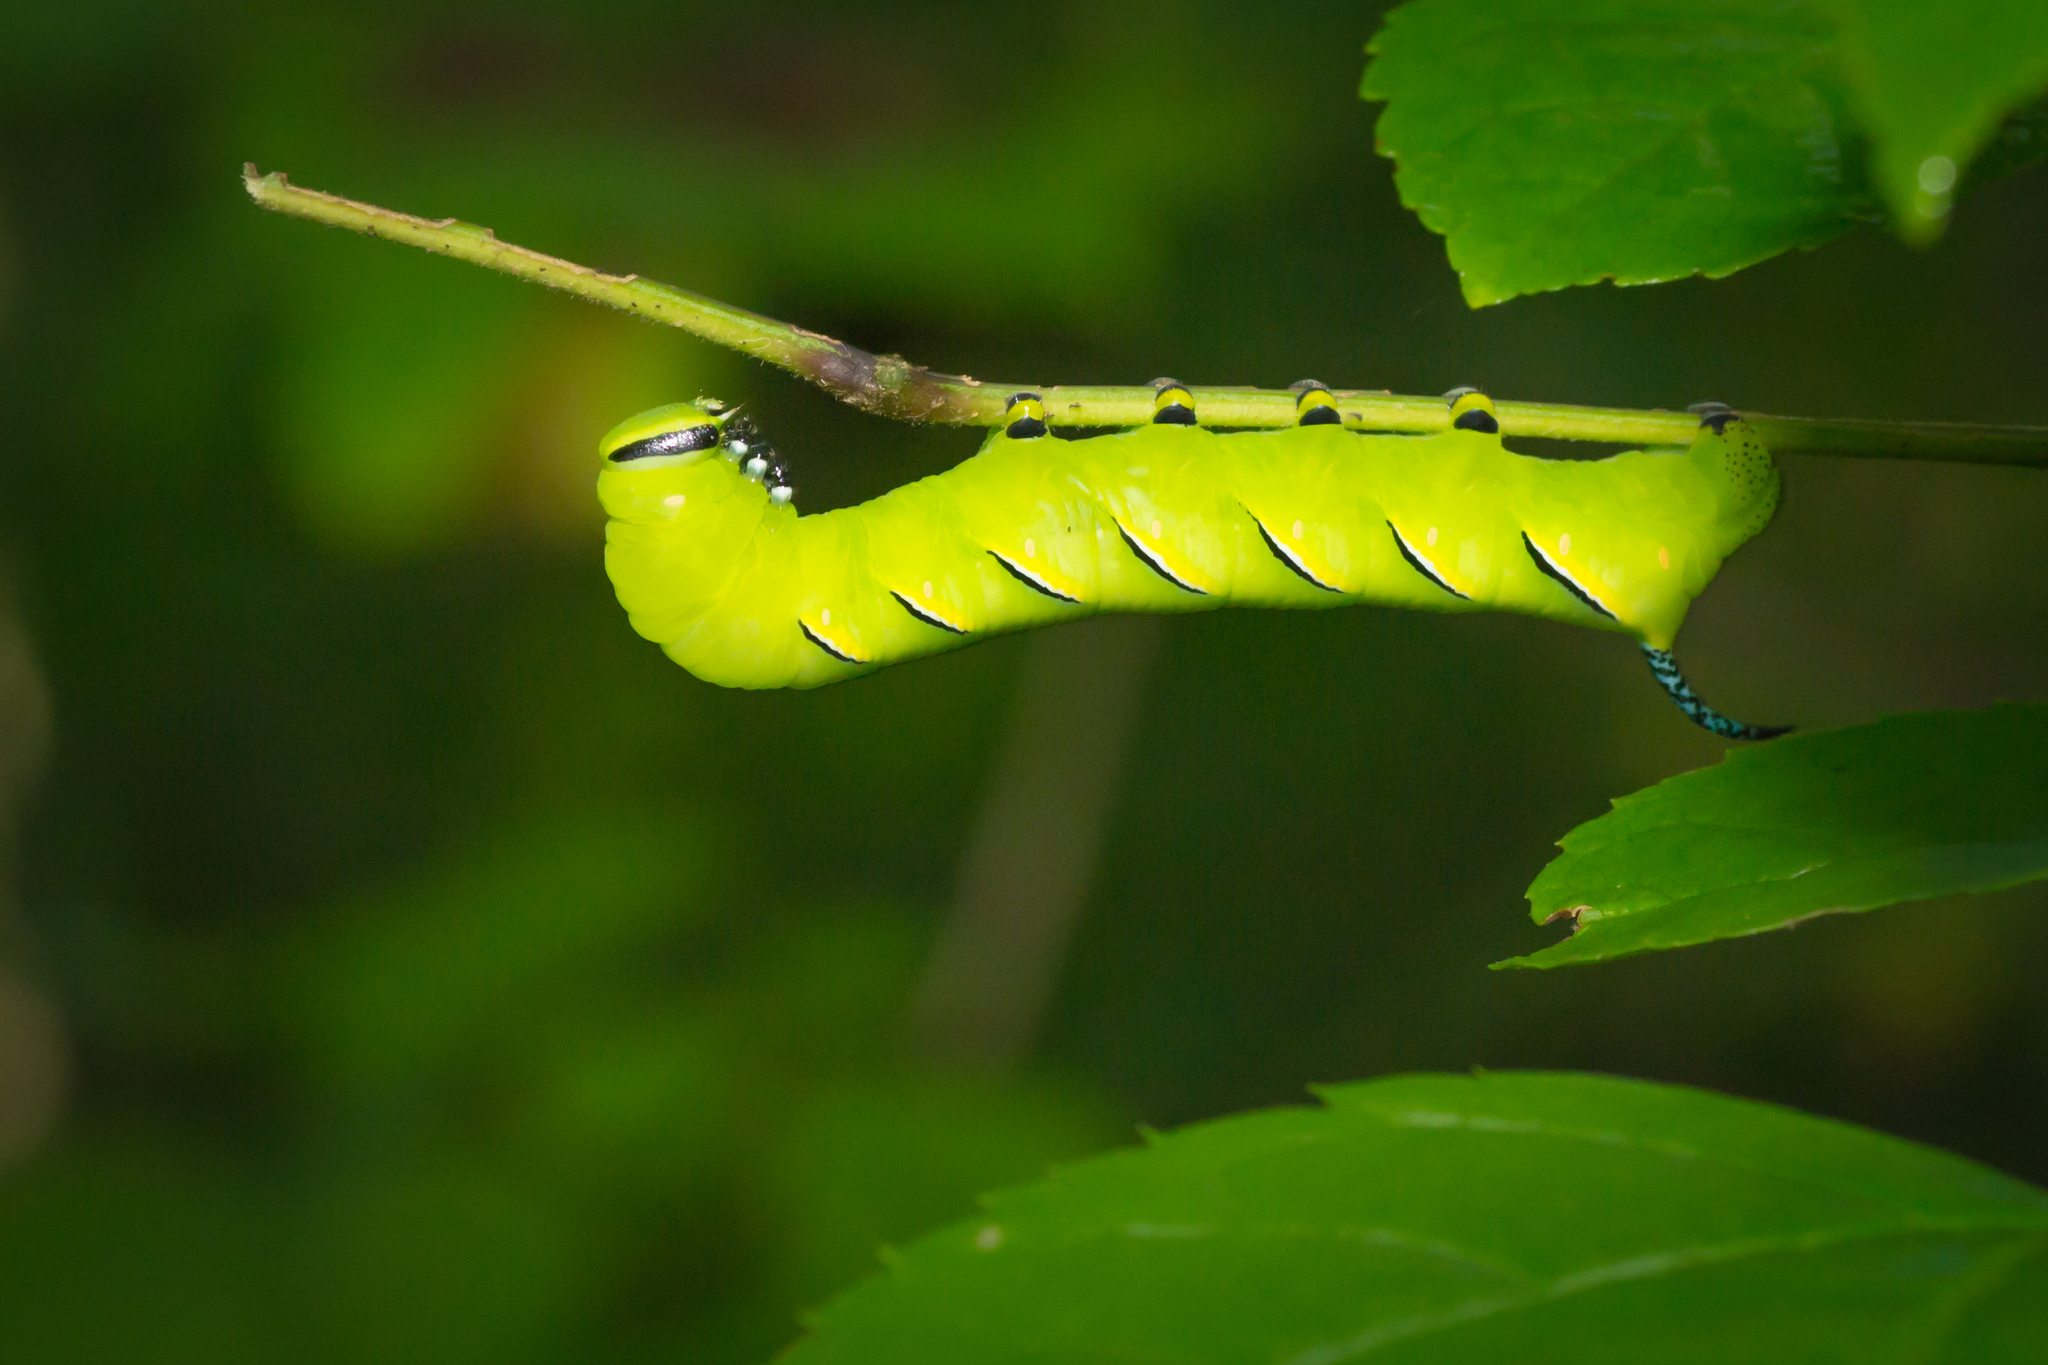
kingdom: Animalia
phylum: Arthropoda
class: Insecta
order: Lepidoptera
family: Sphingidae
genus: Sphinx
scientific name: Sphinx kalmiae
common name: Laurel sphinx
